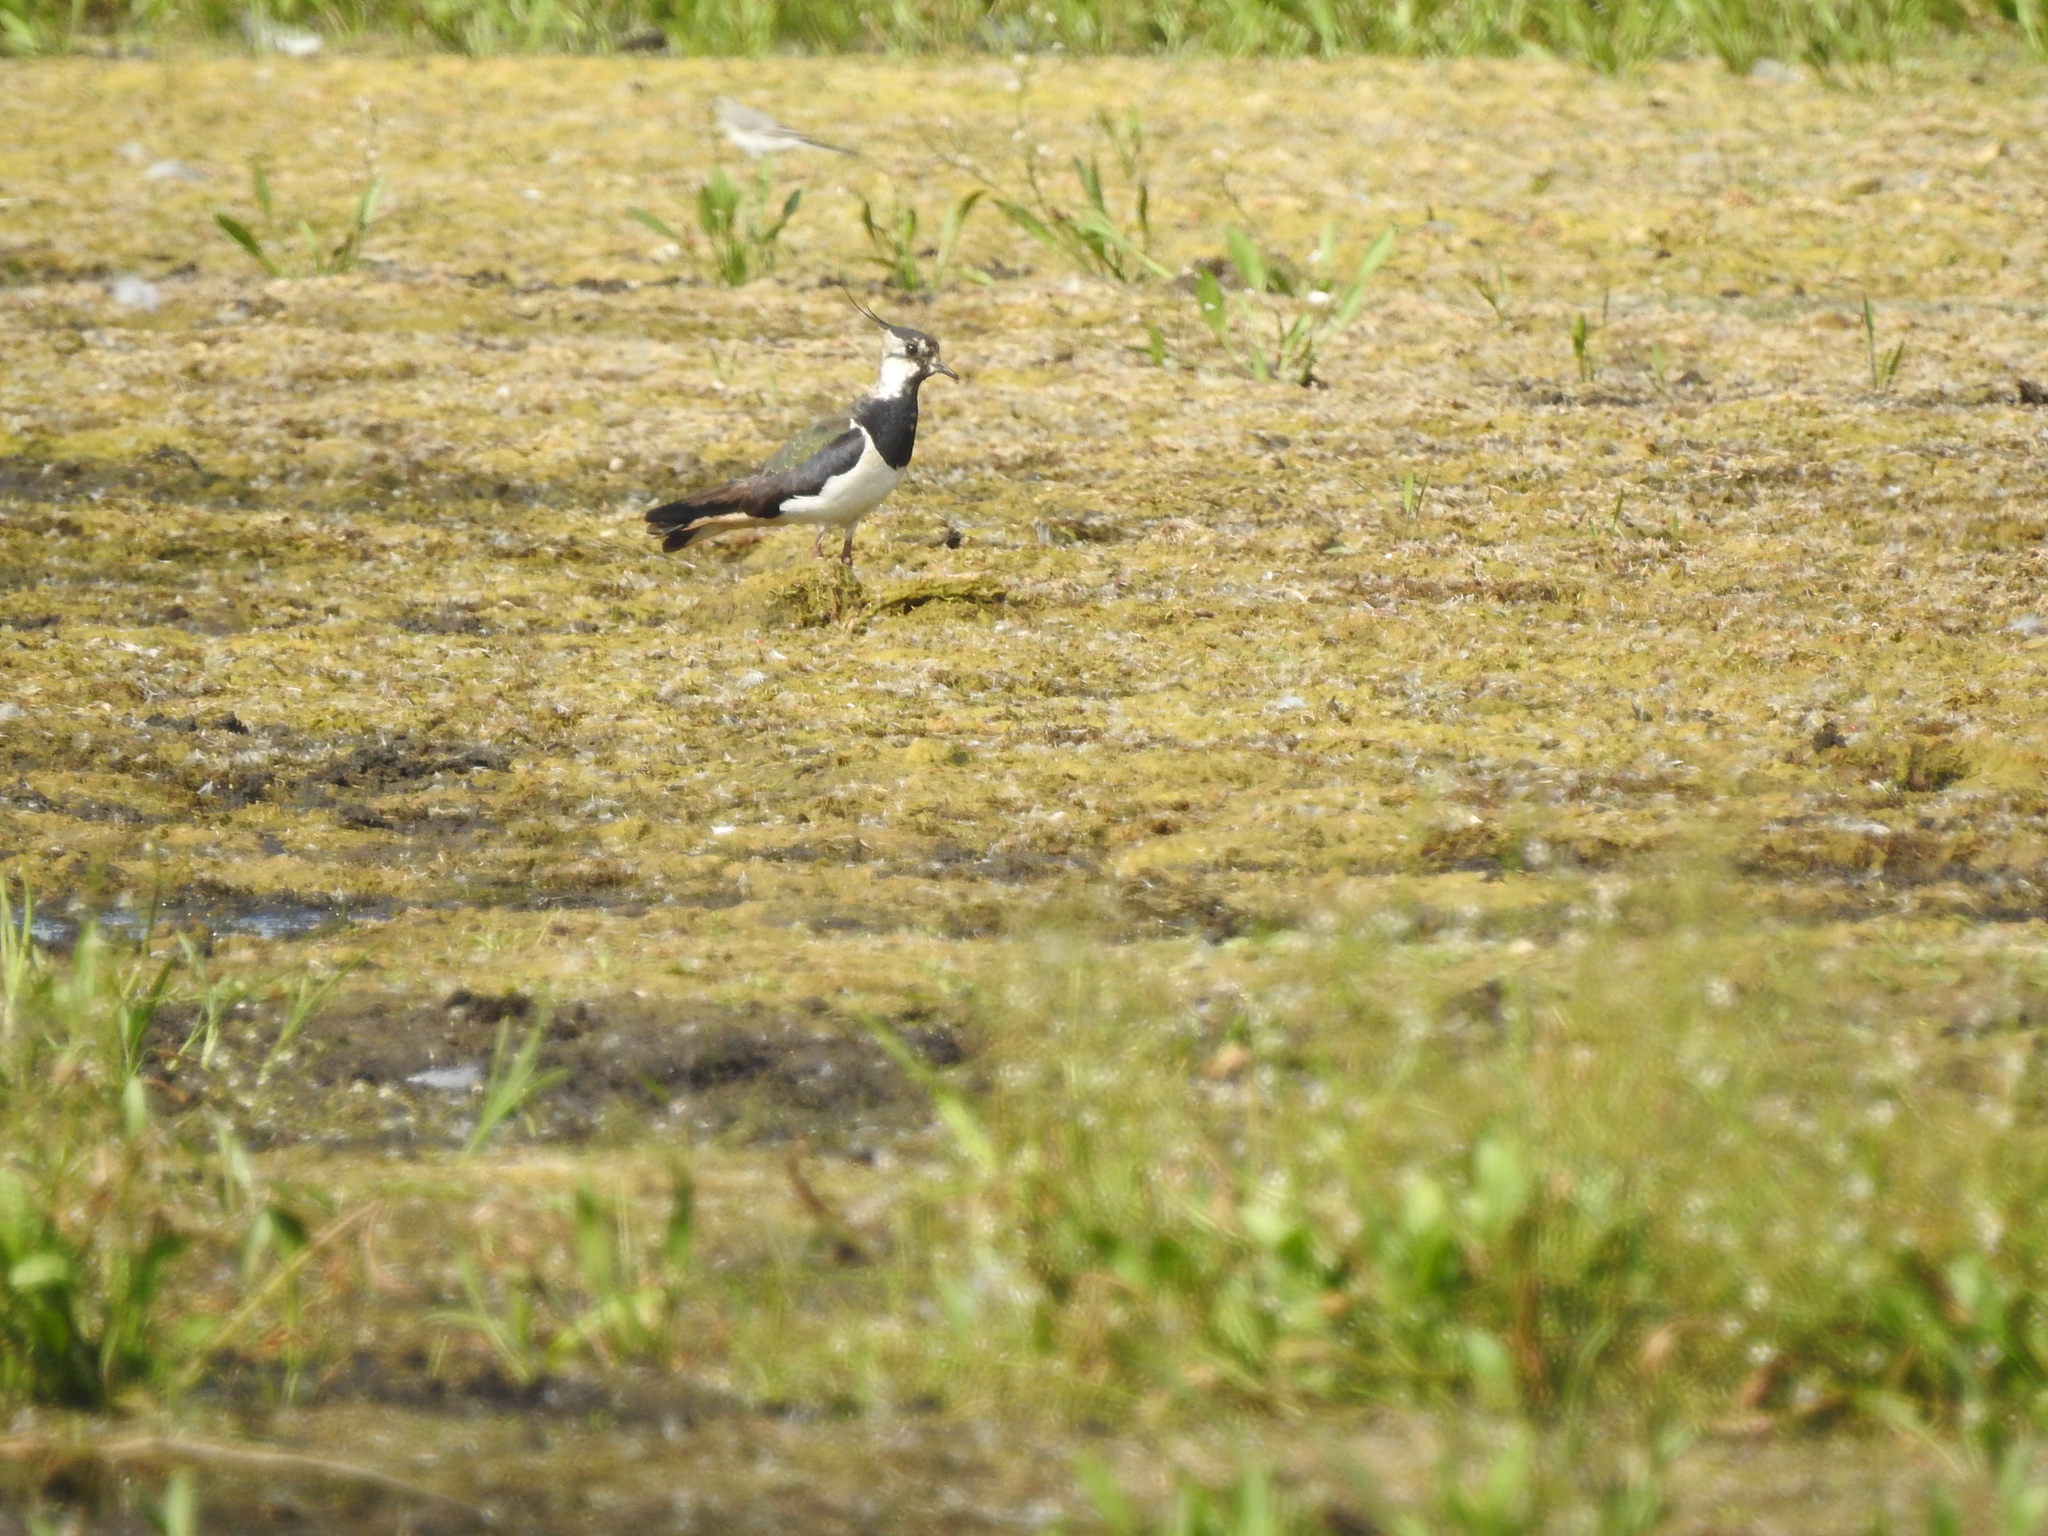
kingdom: Animalia
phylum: Chordata
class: Aves
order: Charadriiformes
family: Charadriidae
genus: Vanellus
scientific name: Vanellus vanellus
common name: Northern lapwing
